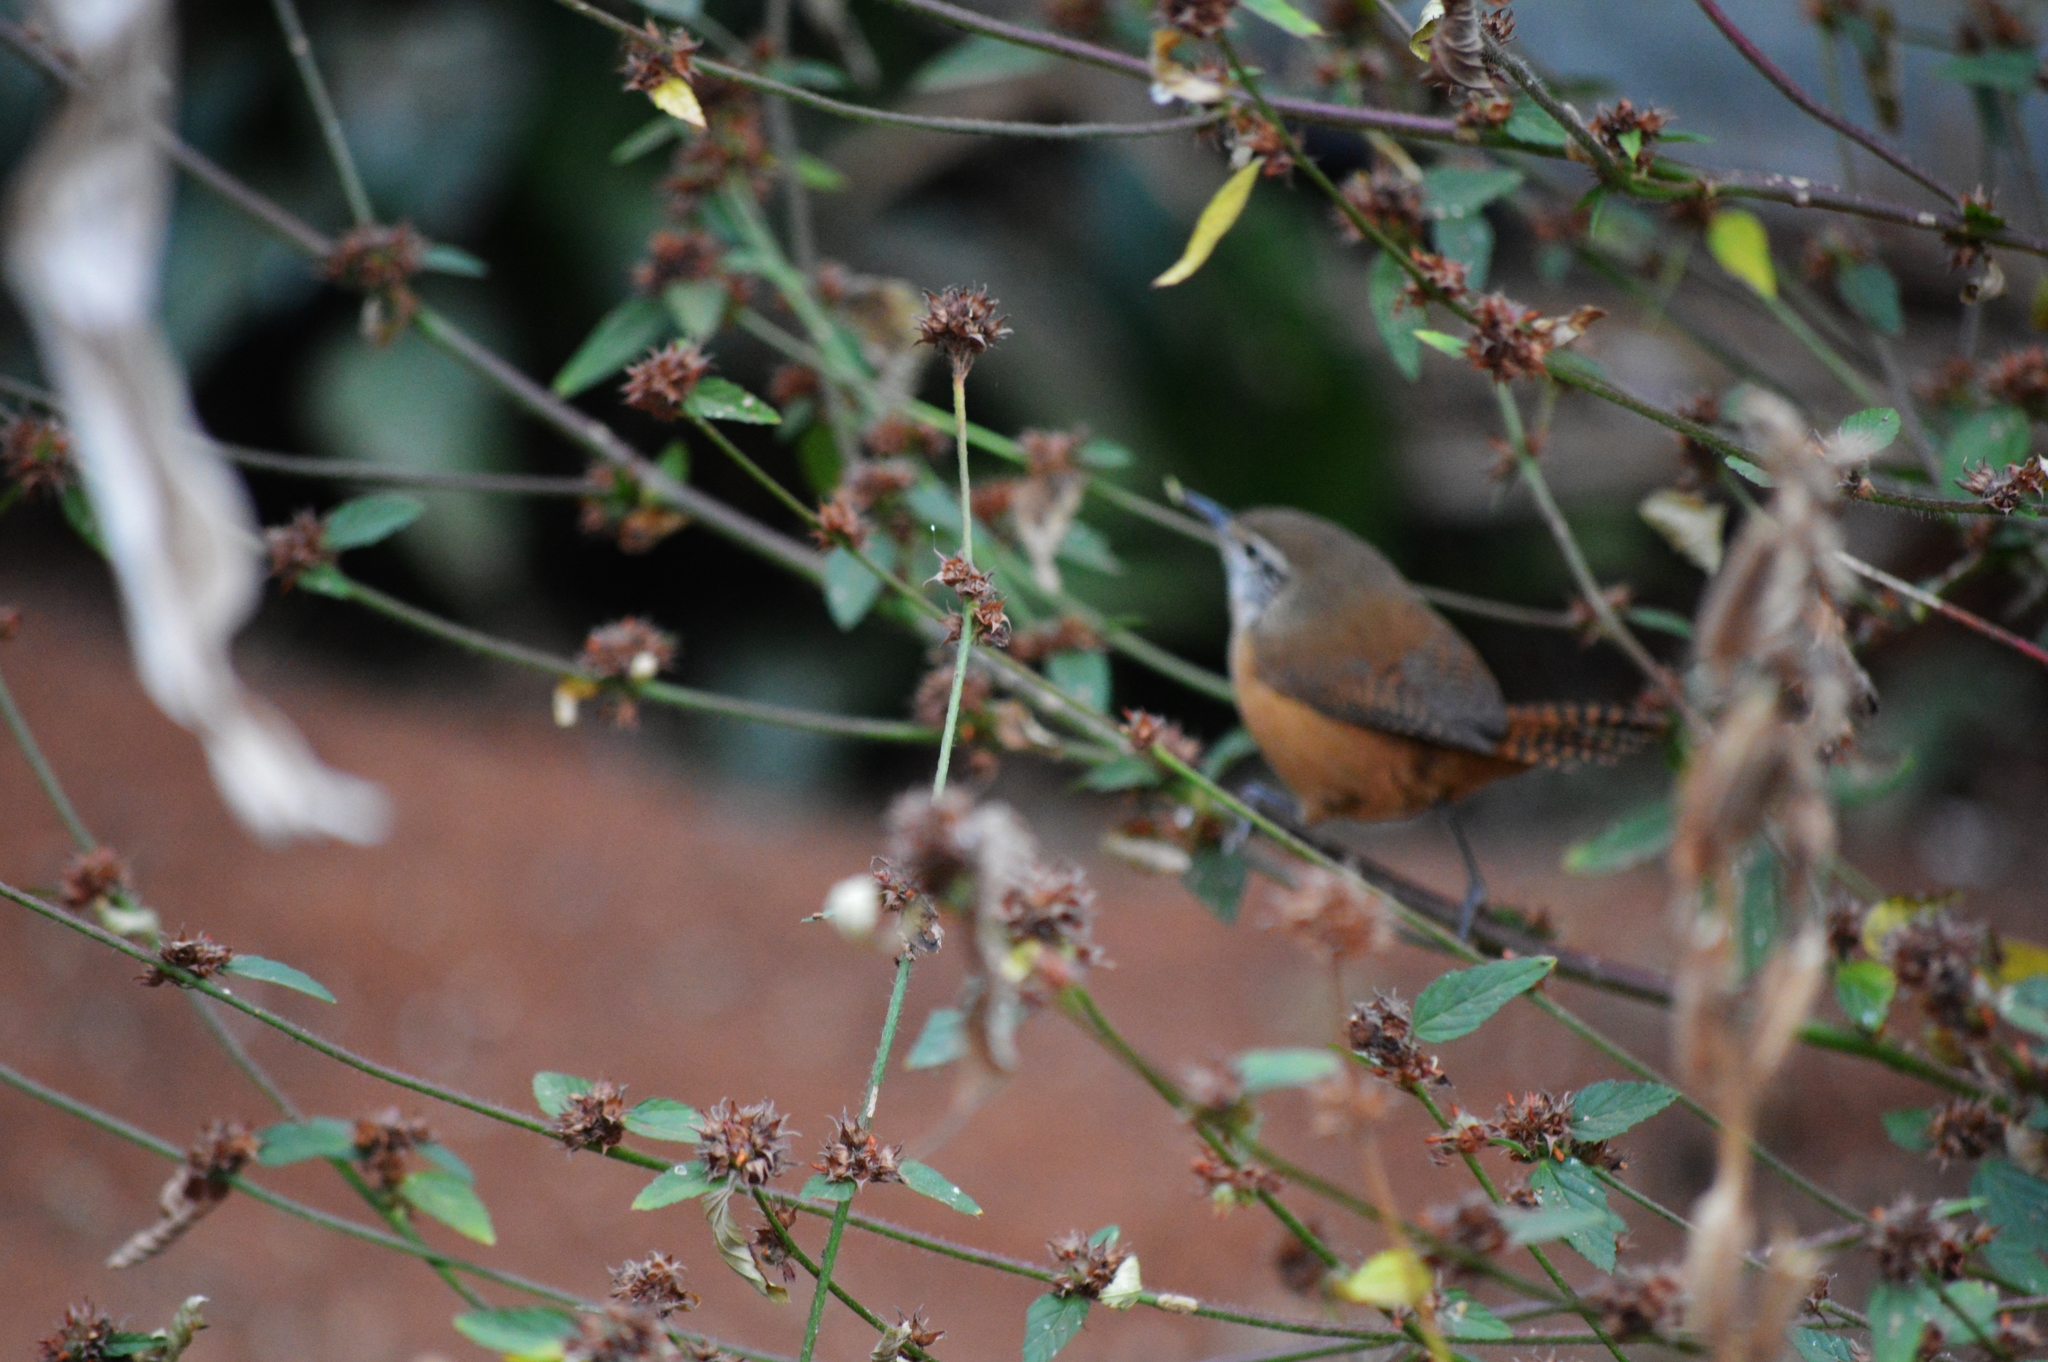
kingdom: Animalia
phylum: Chordata
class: Aves
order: Passeriformes
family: Troglodytidae
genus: Cantorchilus
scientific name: Cantorchilus leucotis
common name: Buff-breasted wren
